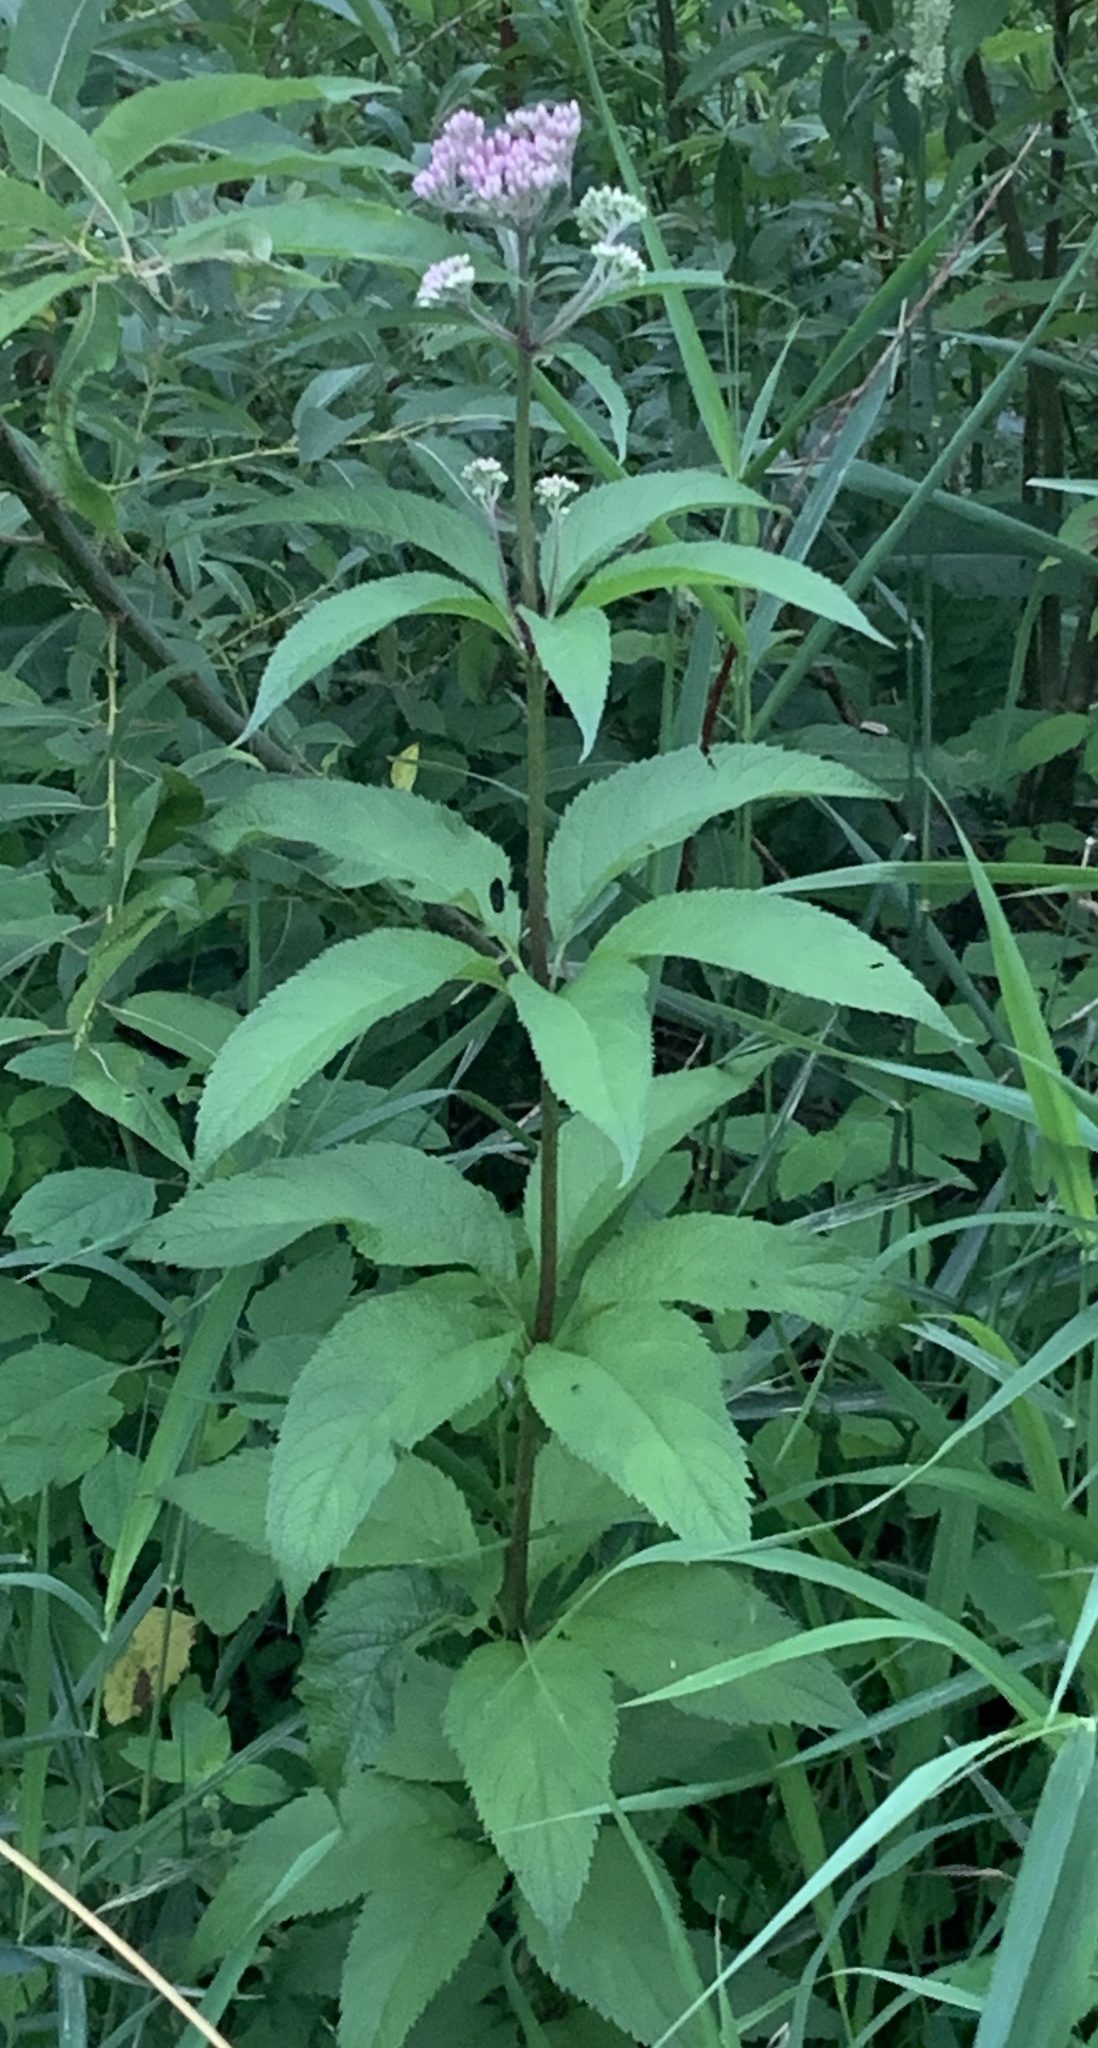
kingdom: Plantae
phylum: Tracheophyta
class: Magnoliopsida
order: Asterales
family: Asteraceae
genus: Eutrochium
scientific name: Eutrochium maculatum
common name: Spotted joe pye weed
